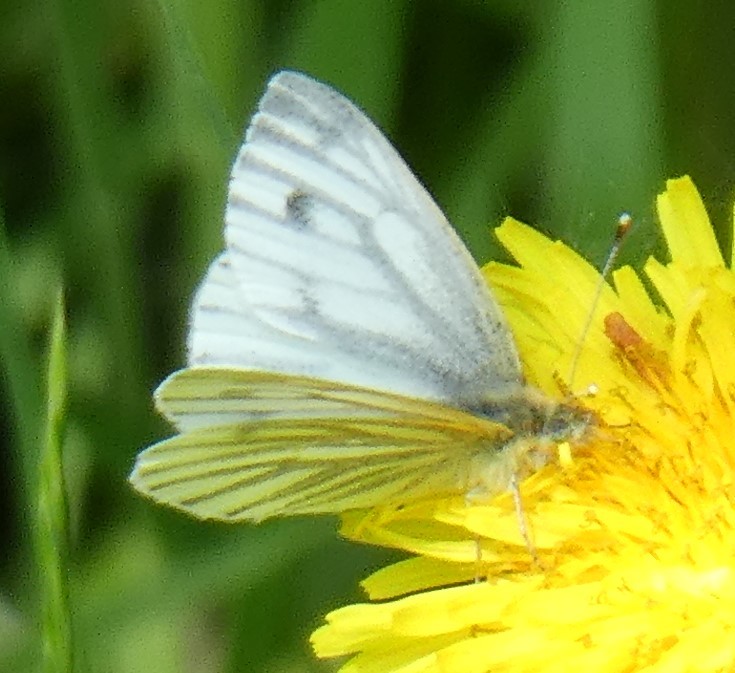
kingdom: Animalia
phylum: Arthropoda
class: Insecta
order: Lepidoptera
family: Pieridae
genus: Pieris
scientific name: Pieris napi
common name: Green-veined white
